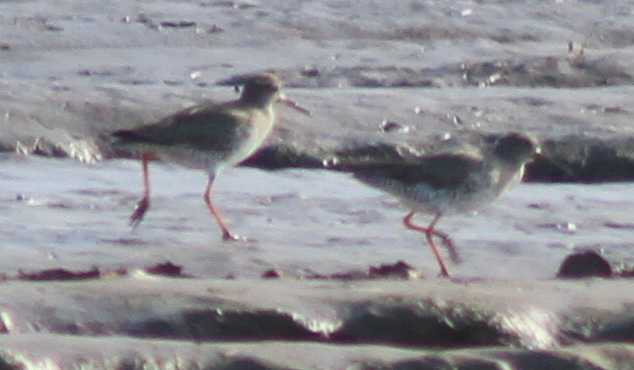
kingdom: Animalia
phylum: Chordata
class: Aves
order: Charadriiformes
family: Scolopacidae
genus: Tringa
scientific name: Tringa totanus
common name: Common redshank
